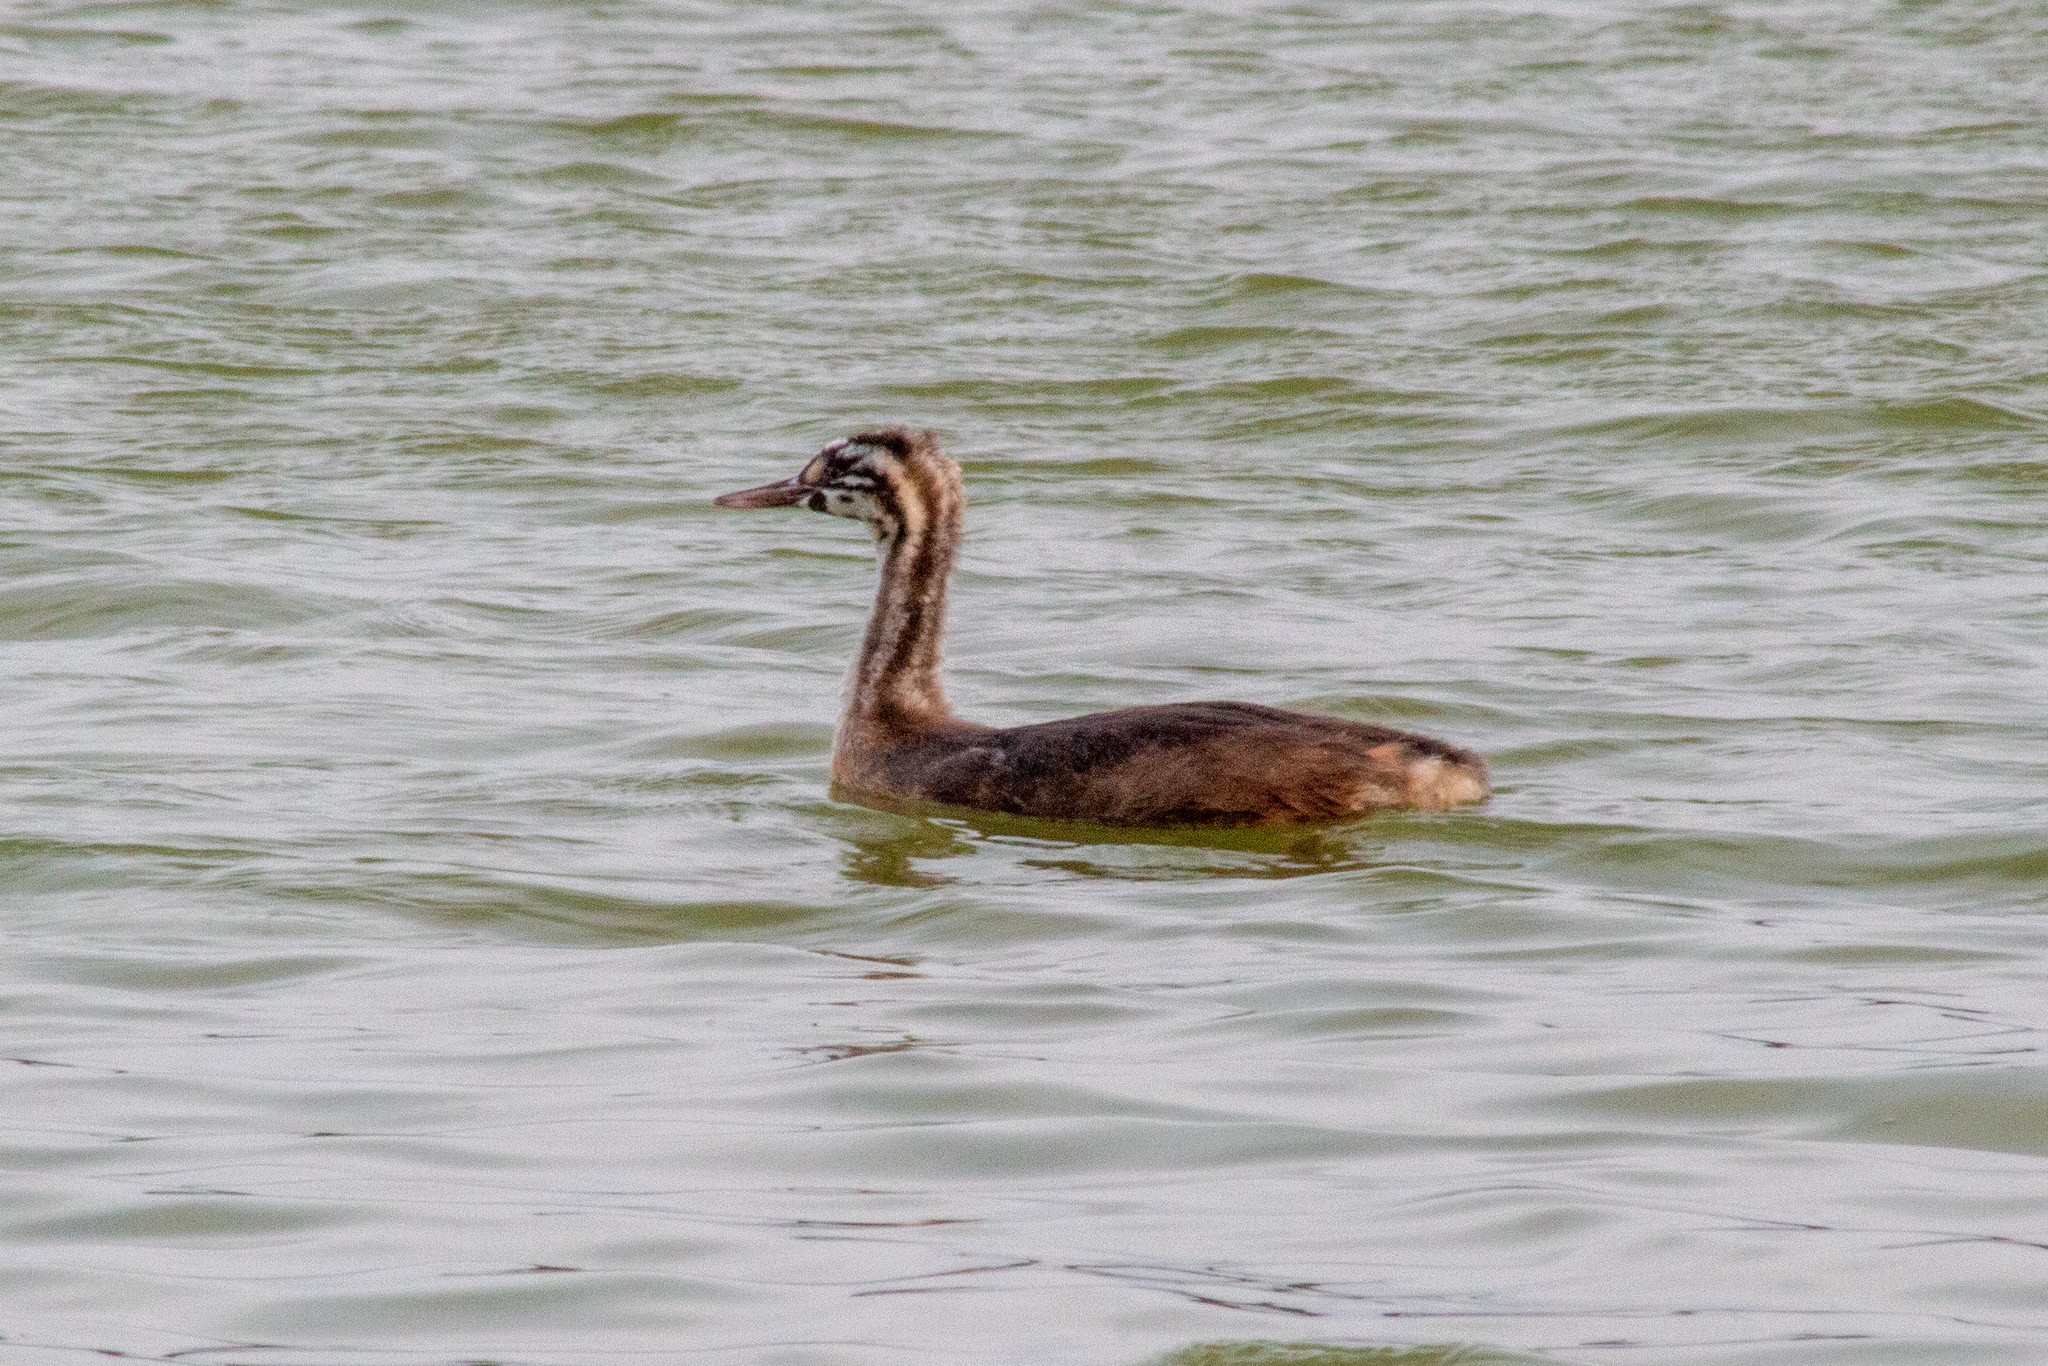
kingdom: Animalia
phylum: Chordata
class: Aves
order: Podicipediformes
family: Podicipedidae
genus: Podiceps
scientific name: Podiceps cristatus
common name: Great crested grebe
